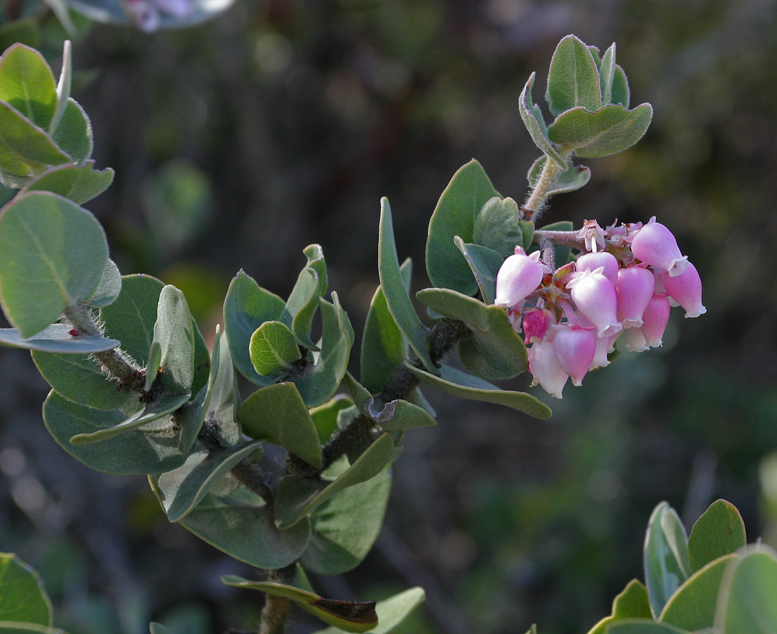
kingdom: Plantae
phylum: Tracheophyta
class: Magnoliopsida
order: Ericales
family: Ericaceae
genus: Arctostaphylos
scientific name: Arctostaphylos auriculata
